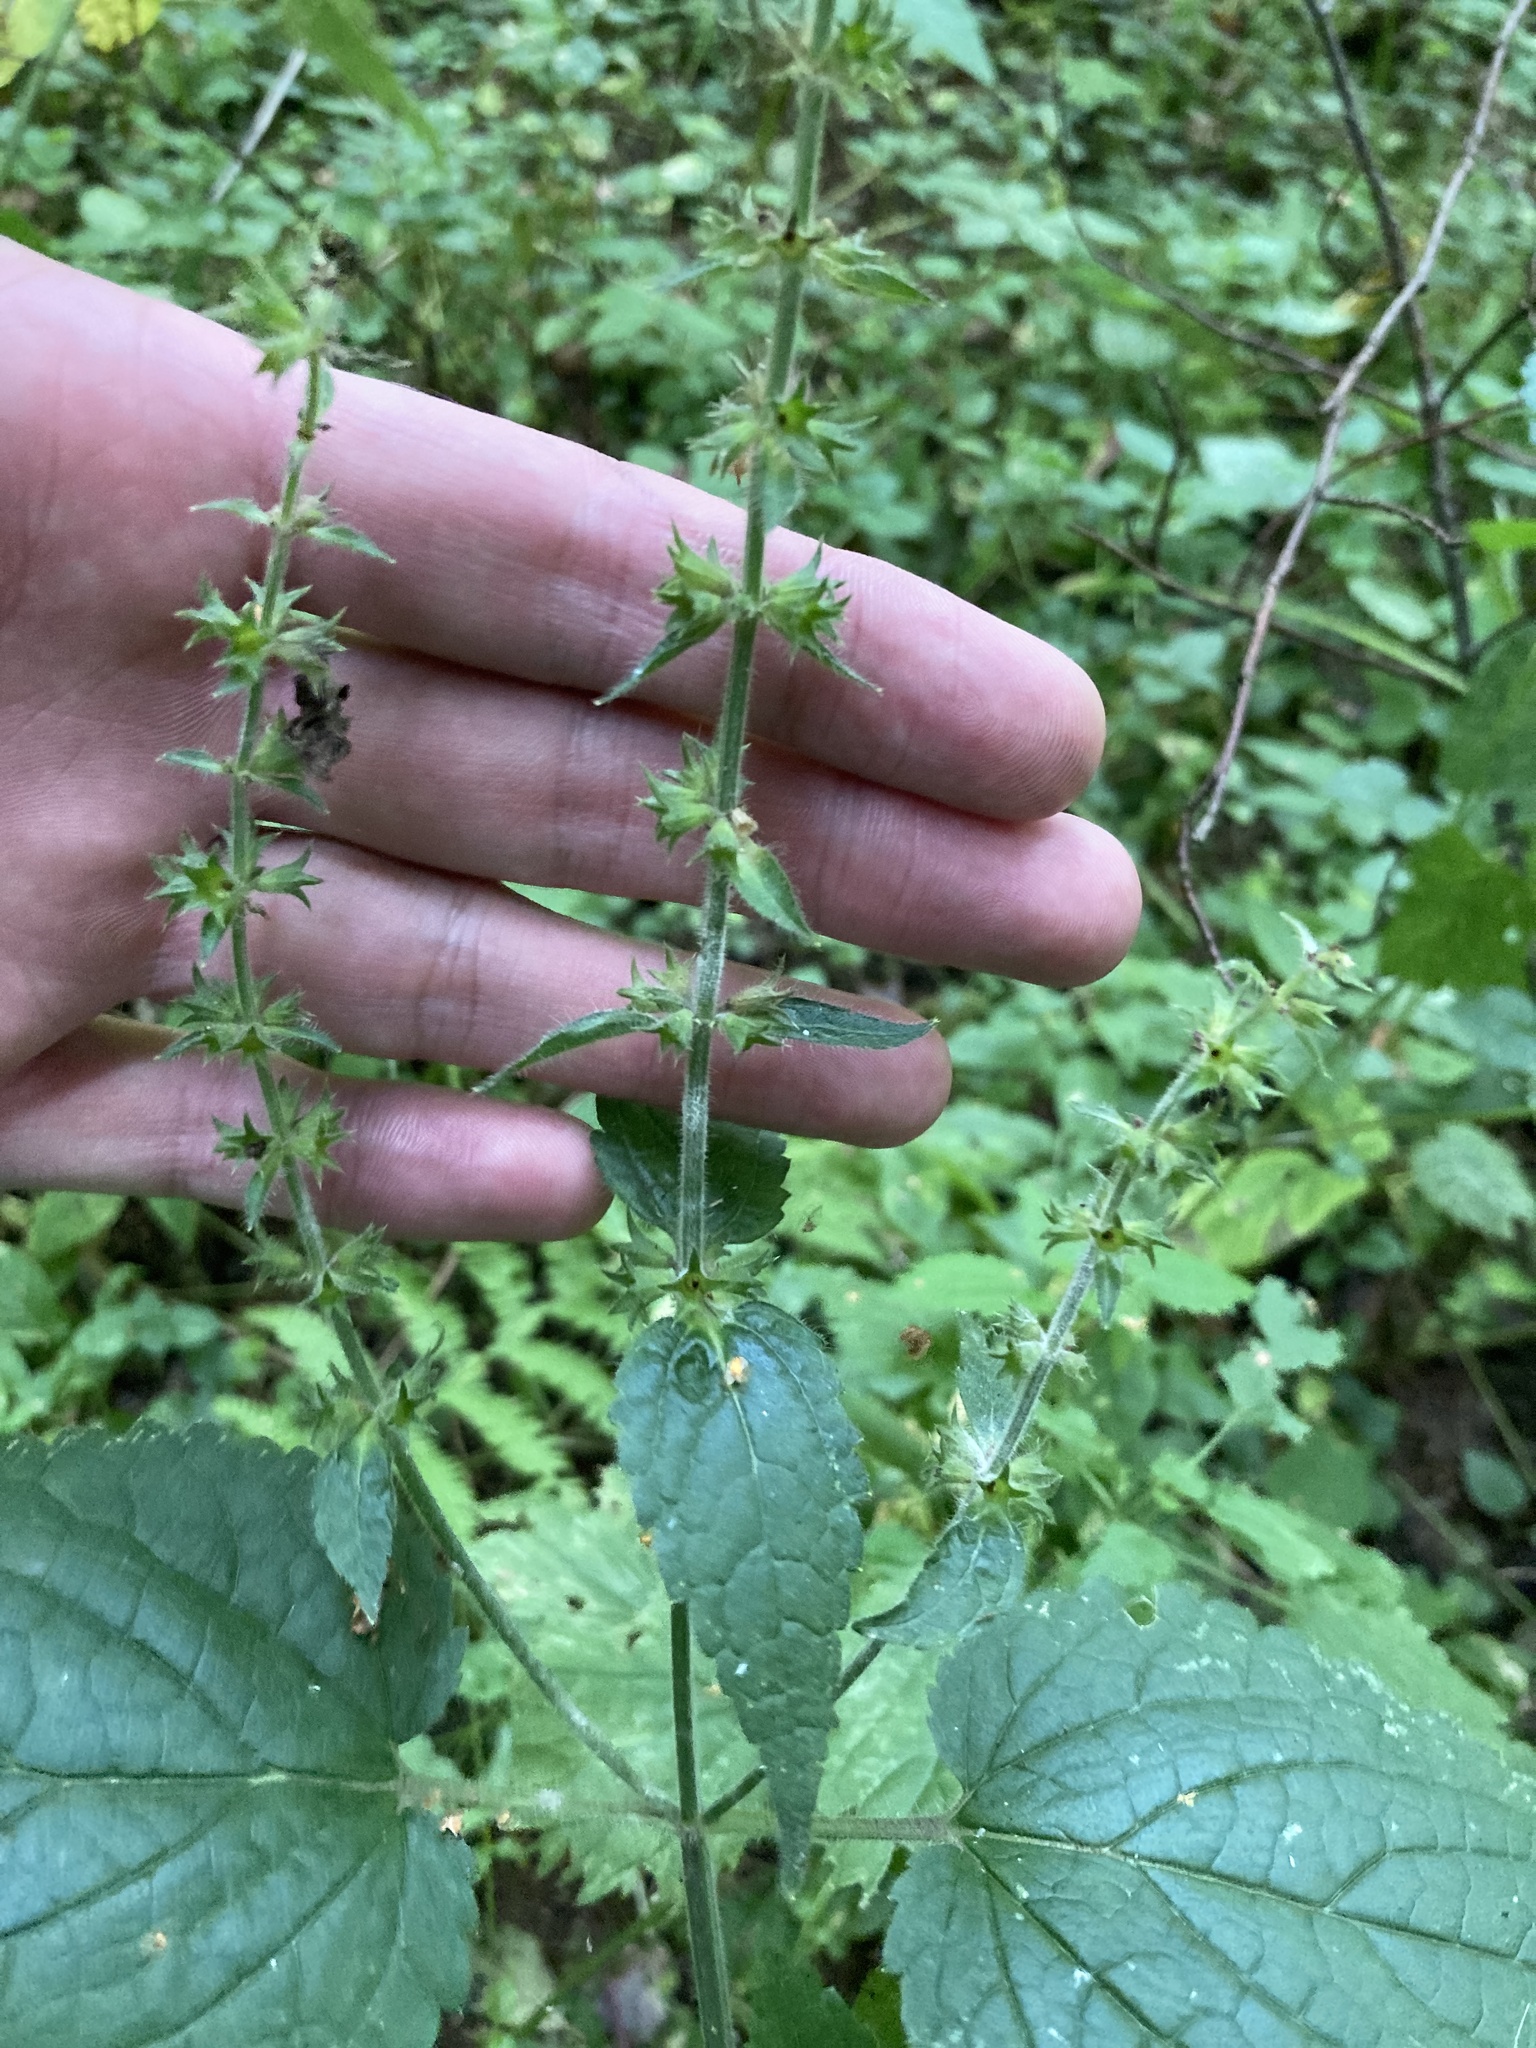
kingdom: Plantae
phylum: Tracheophyta
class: Magnoliopsida
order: Lamiales
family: Lamiaceae
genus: Stachys
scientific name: Stachys sylvatica
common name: Hedge woundwort
